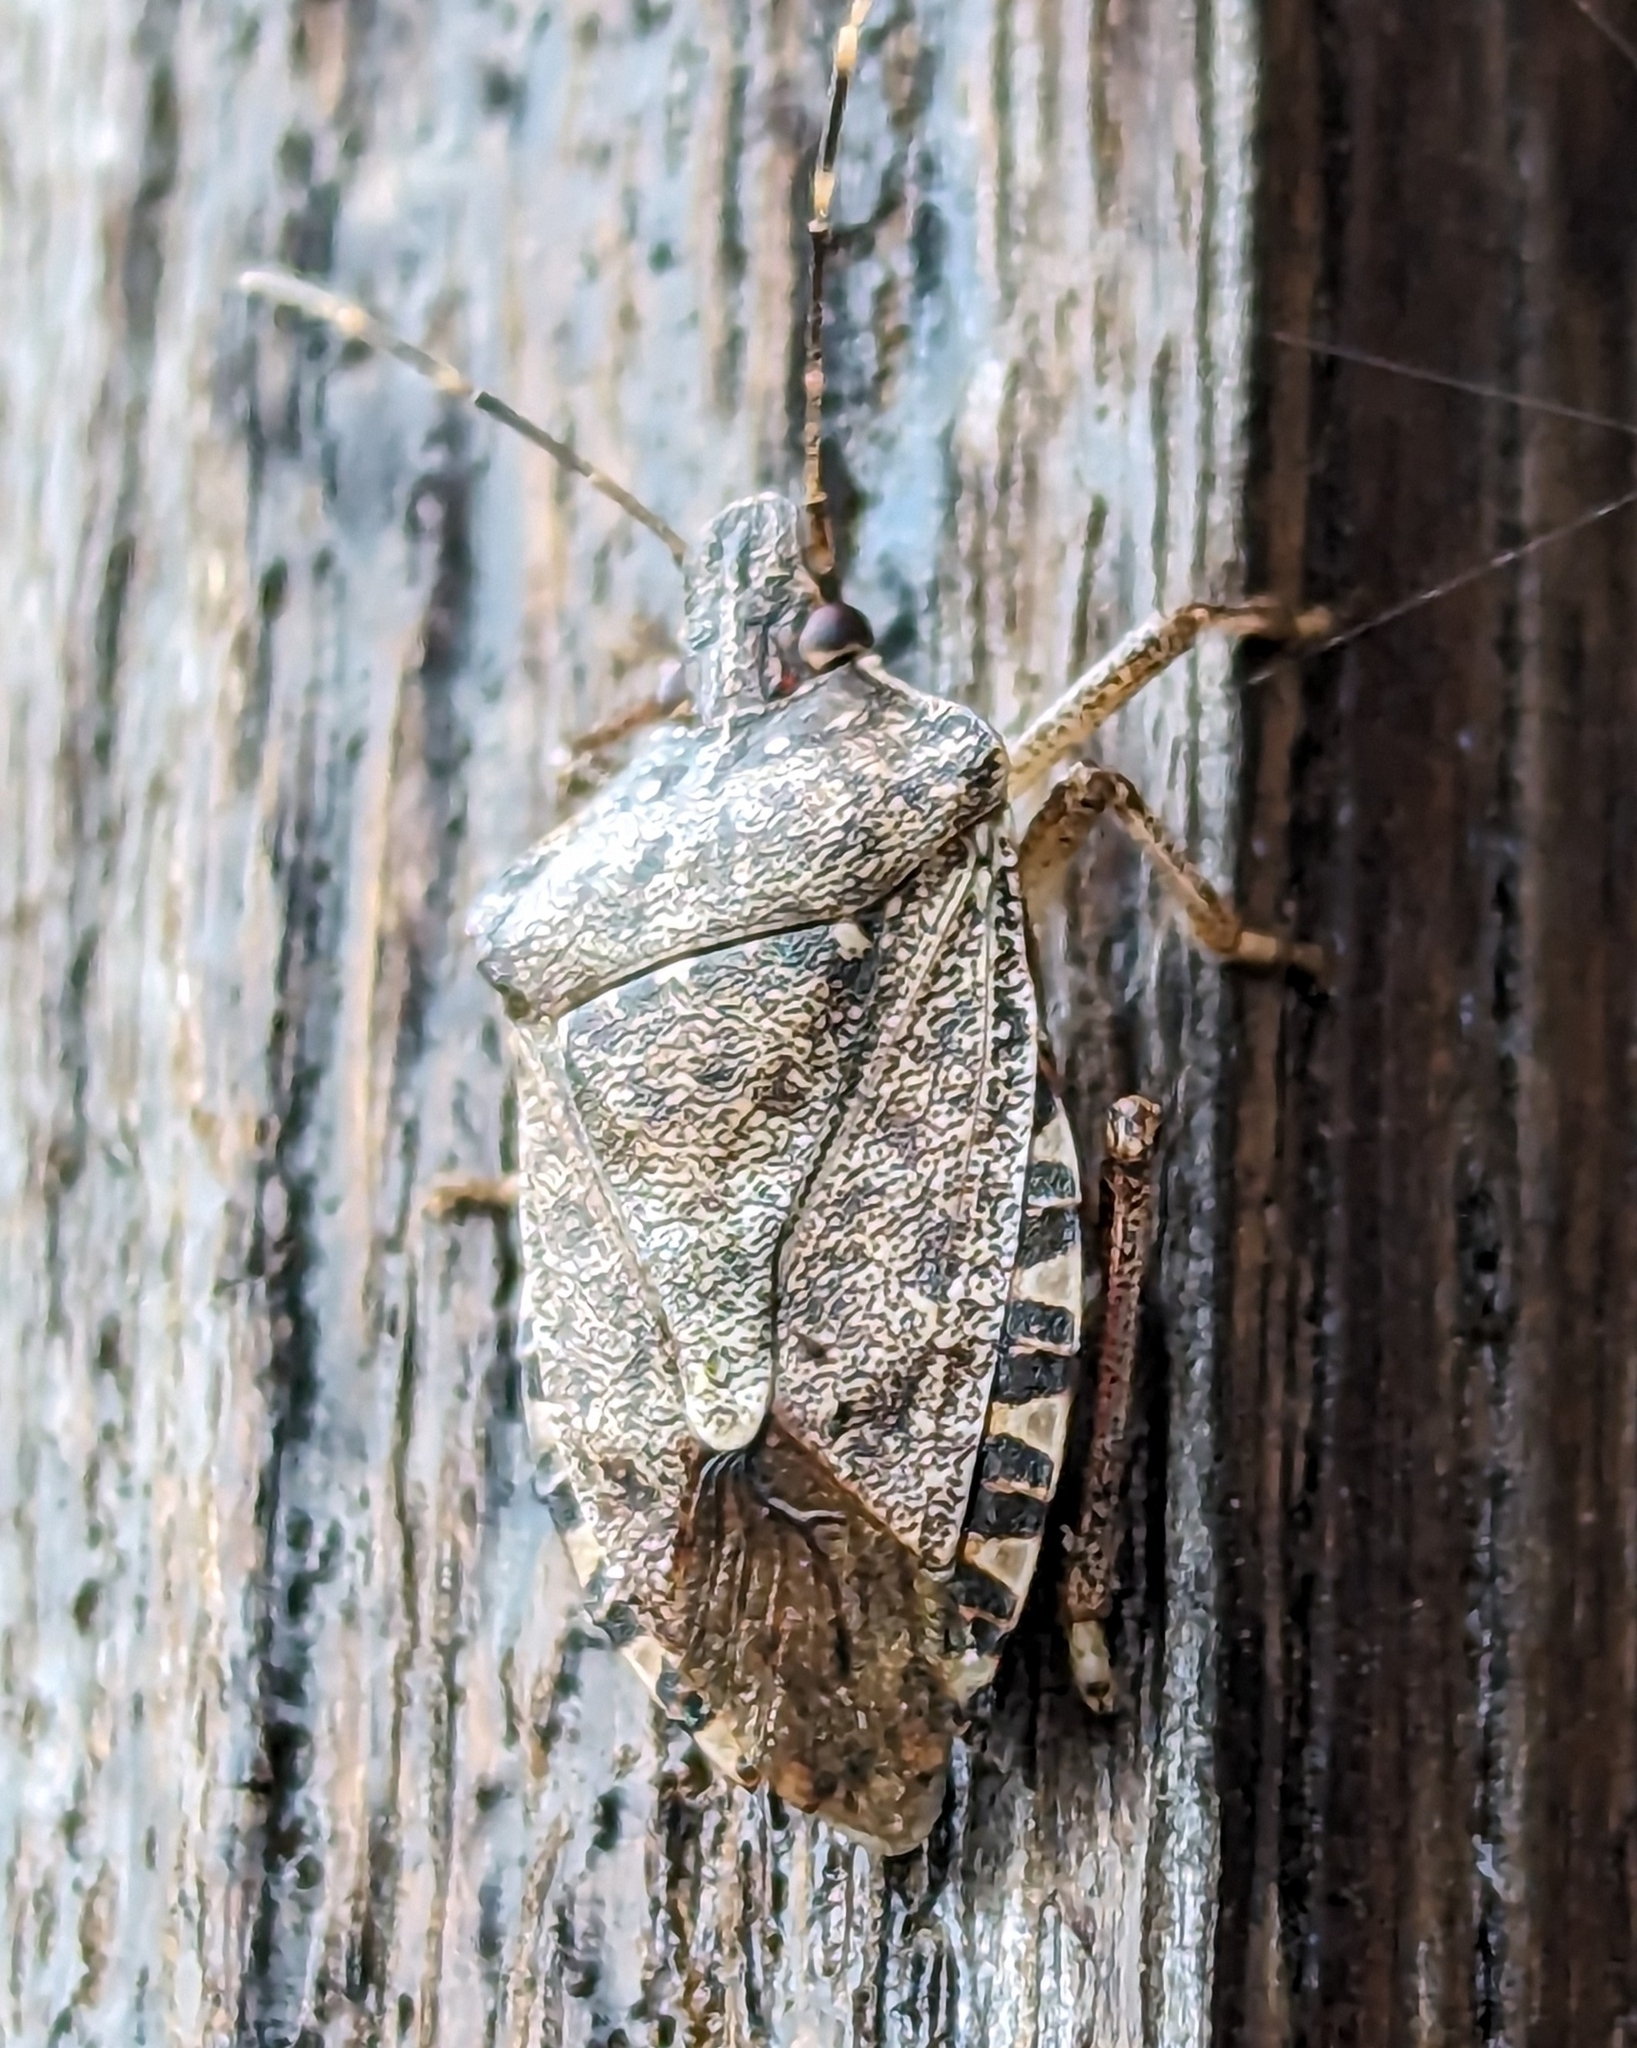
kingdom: Animalia
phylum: Arthropoda
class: Insecta
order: Hemiptera
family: Pentatomidae
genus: Halyomorpha
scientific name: Halyomorpha halys
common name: Brown marmorated stink bug
